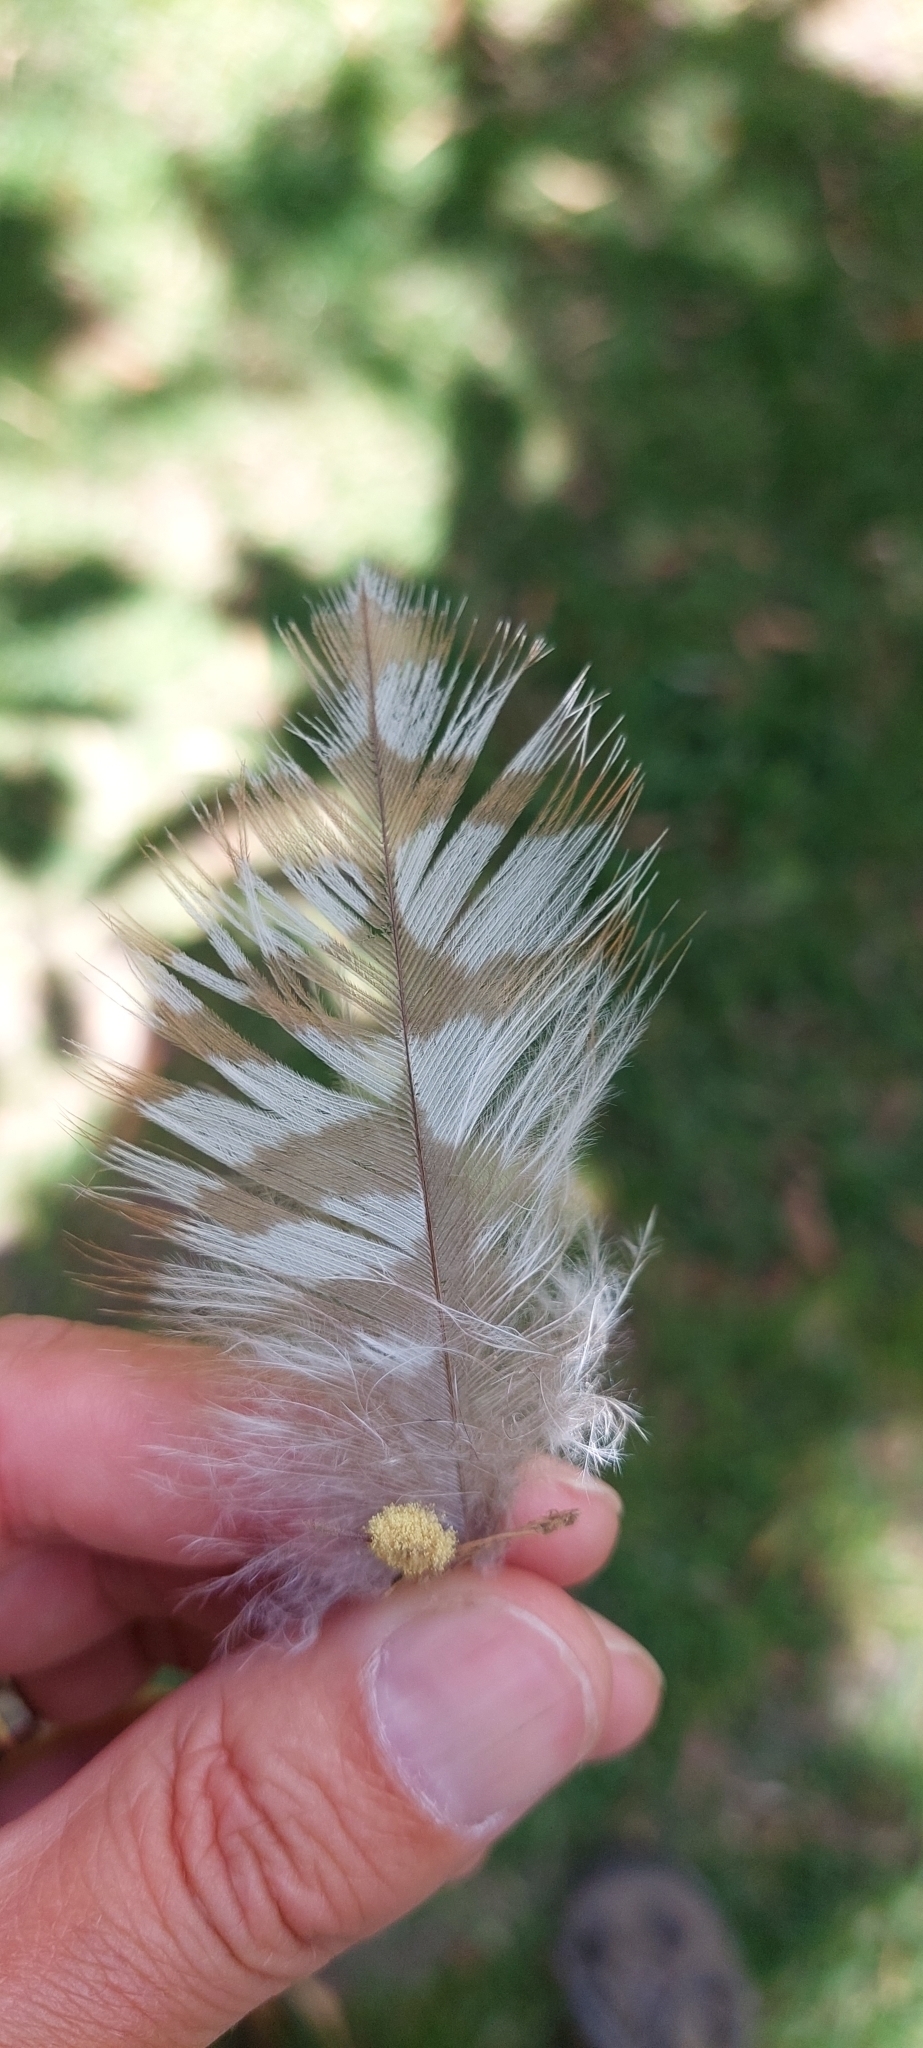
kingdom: Animalia
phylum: Chordata
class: Aves
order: Accipitriformes
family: Accipitridae
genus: Buteo
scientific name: Buteo platypterus
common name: Broad-winged hawk
